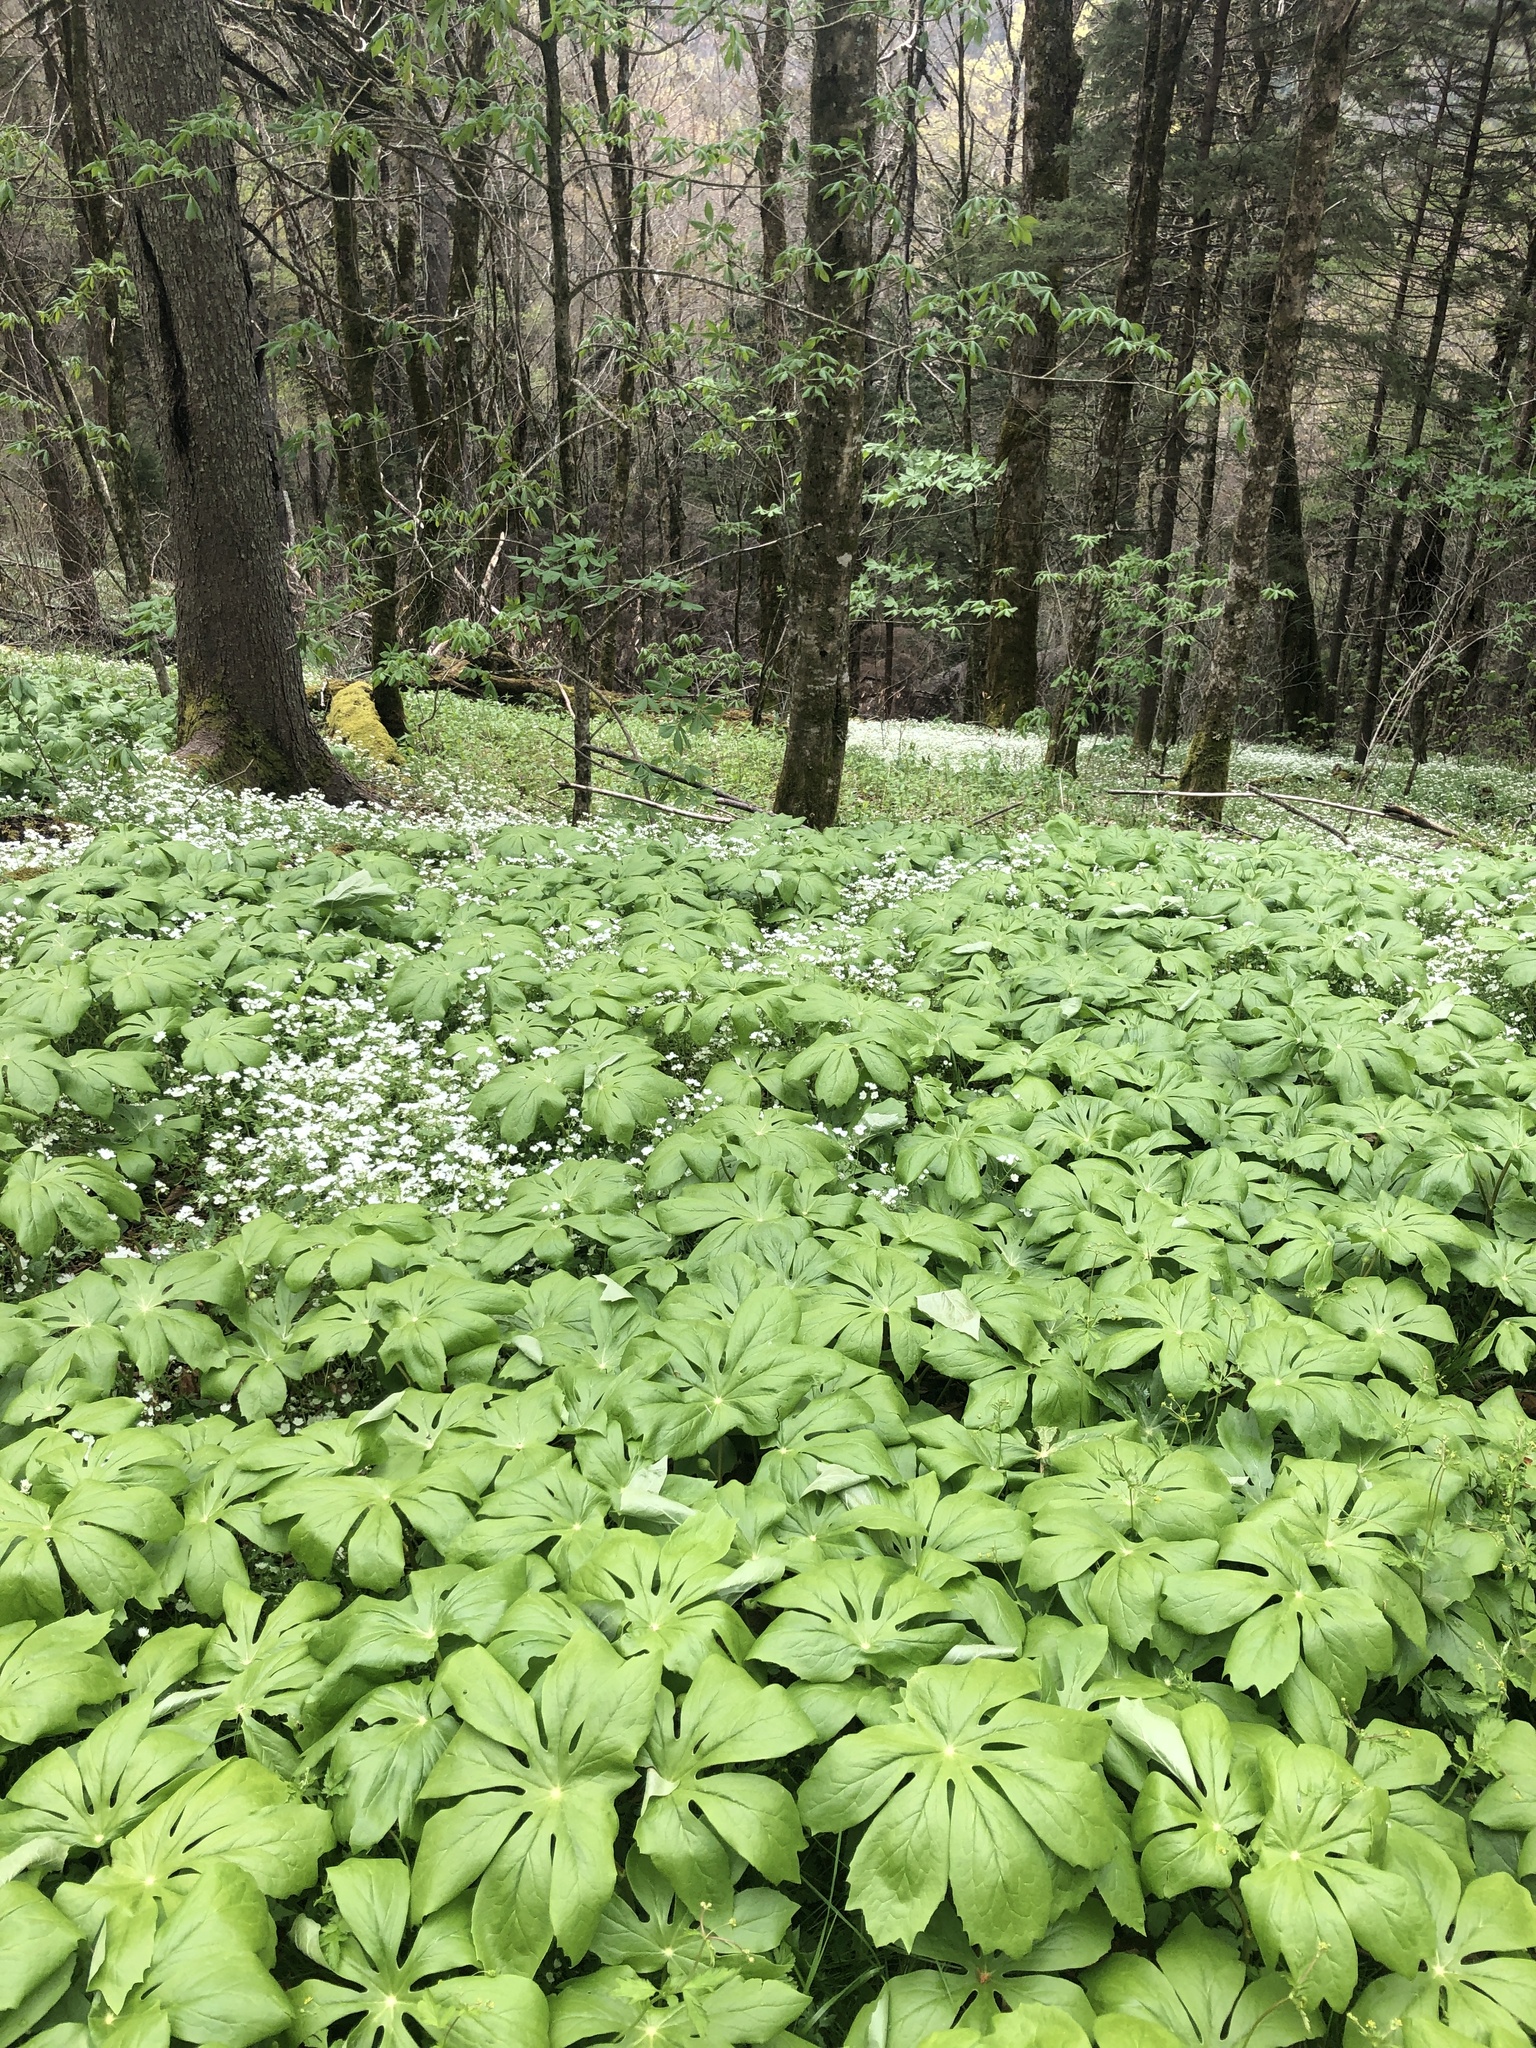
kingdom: Plantae
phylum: Tracheophyta
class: Magnoliopsida
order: Ranunculales
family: Berberidaceae
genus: Podophyllum
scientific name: Podophyllum peltatum
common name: Wild mandrake
